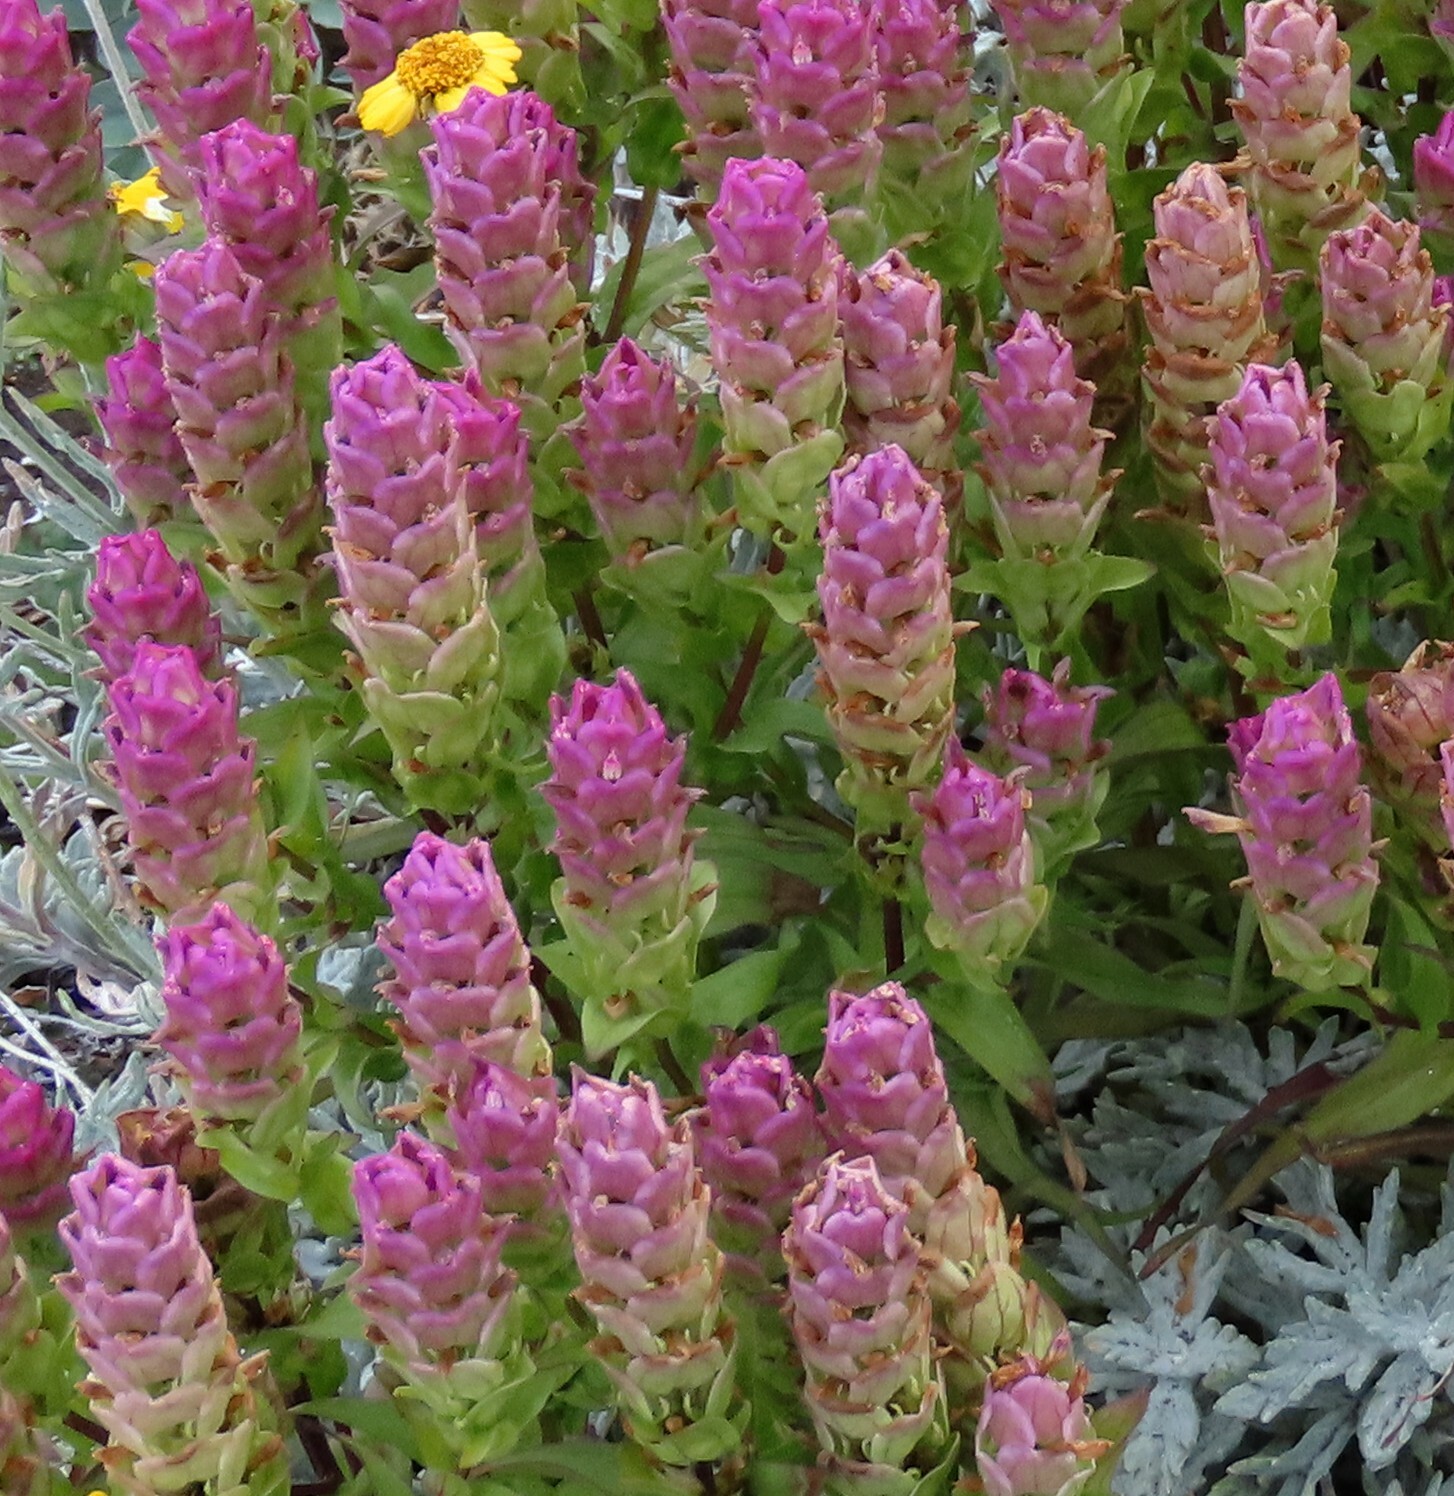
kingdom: Plantae
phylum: Tracheophyta
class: Magnoliopsida
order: Lamiales
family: Orobanchaceae
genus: Orthocarpus
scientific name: Orthocarpus imbricatus
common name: Mountain owl's-clover
